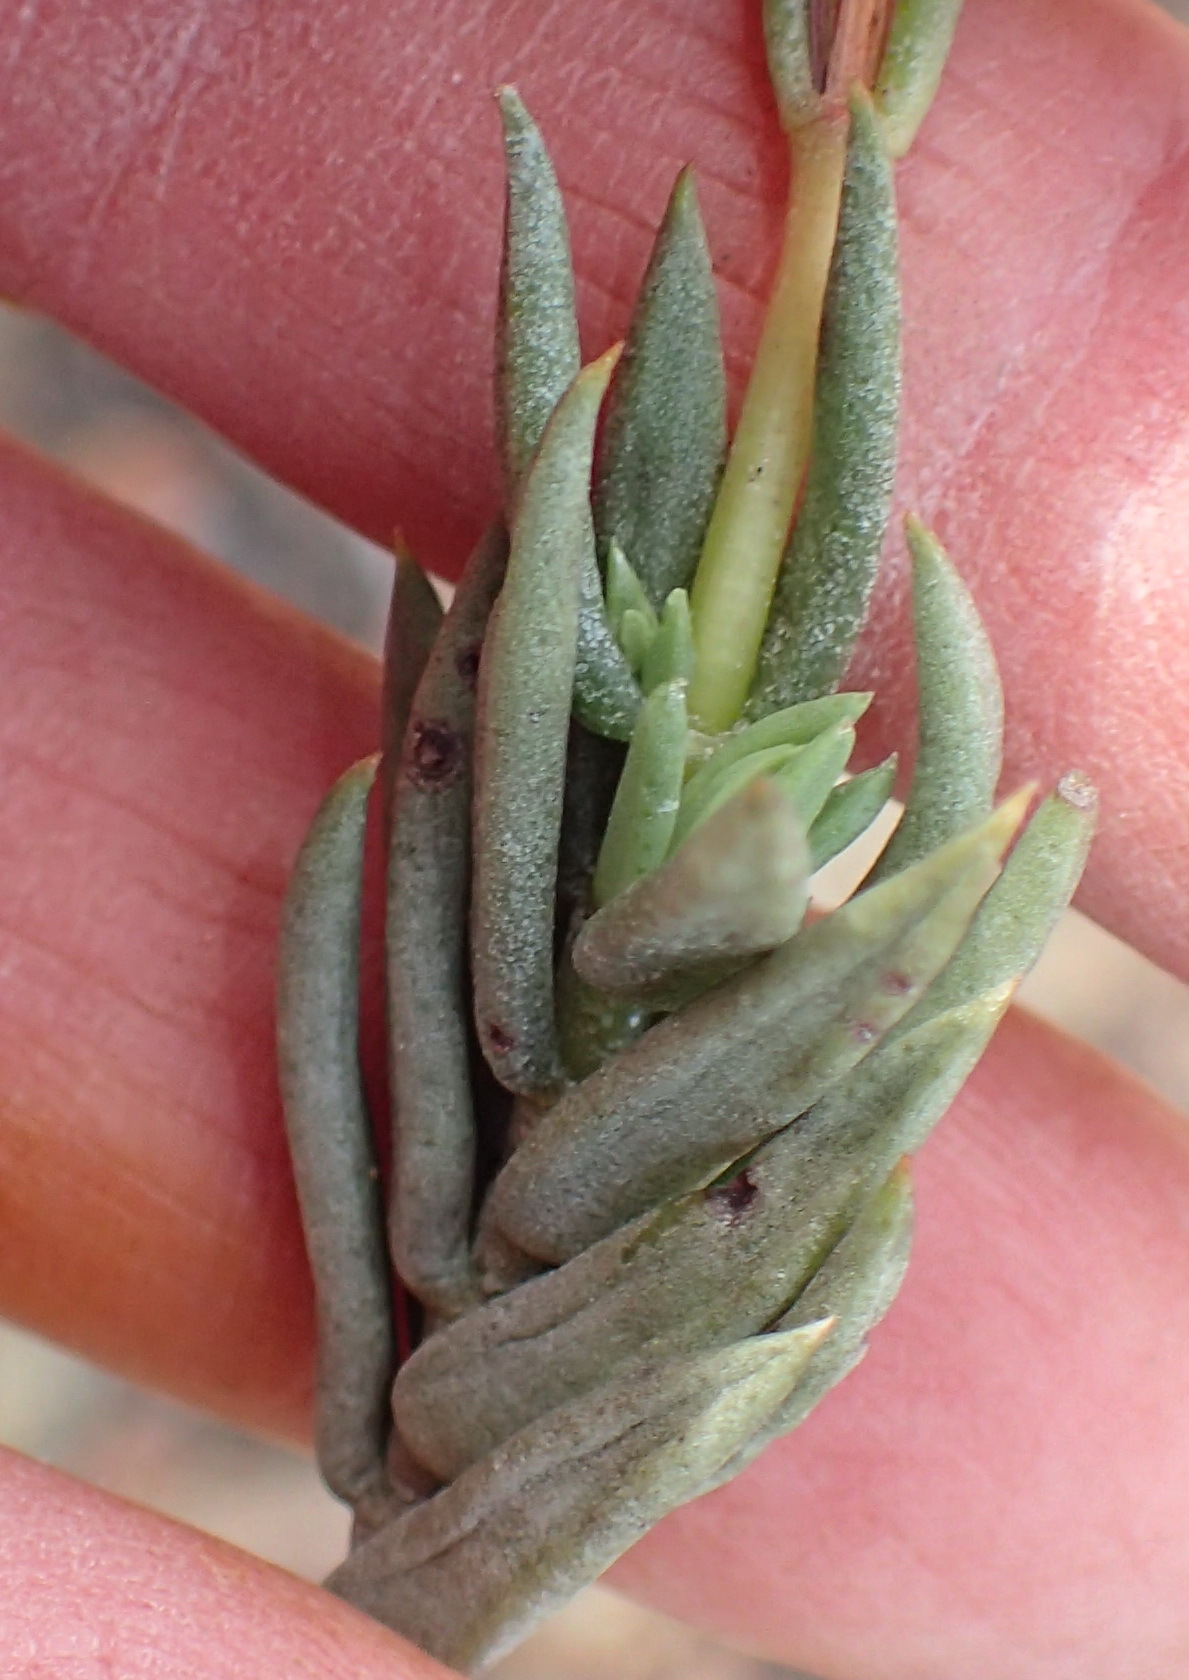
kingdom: Plantae
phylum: Tracheophyta
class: Magnoliopsida
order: Saxifragales
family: Crassulaceae
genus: Crassula
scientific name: Crassula biplanata
